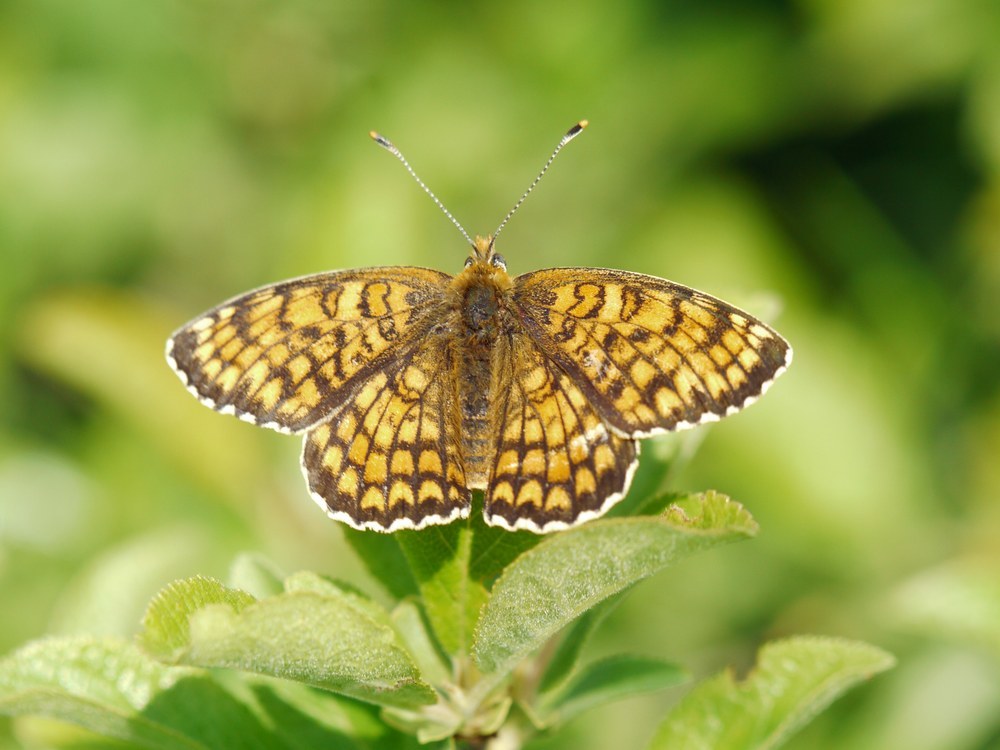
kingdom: Animalia
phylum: Arthropoda
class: Insecta
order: Lepidoptera
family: Nymphalidae
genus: Melitaea
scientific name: Melitaea phoebe
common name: Knapweed fritillary
